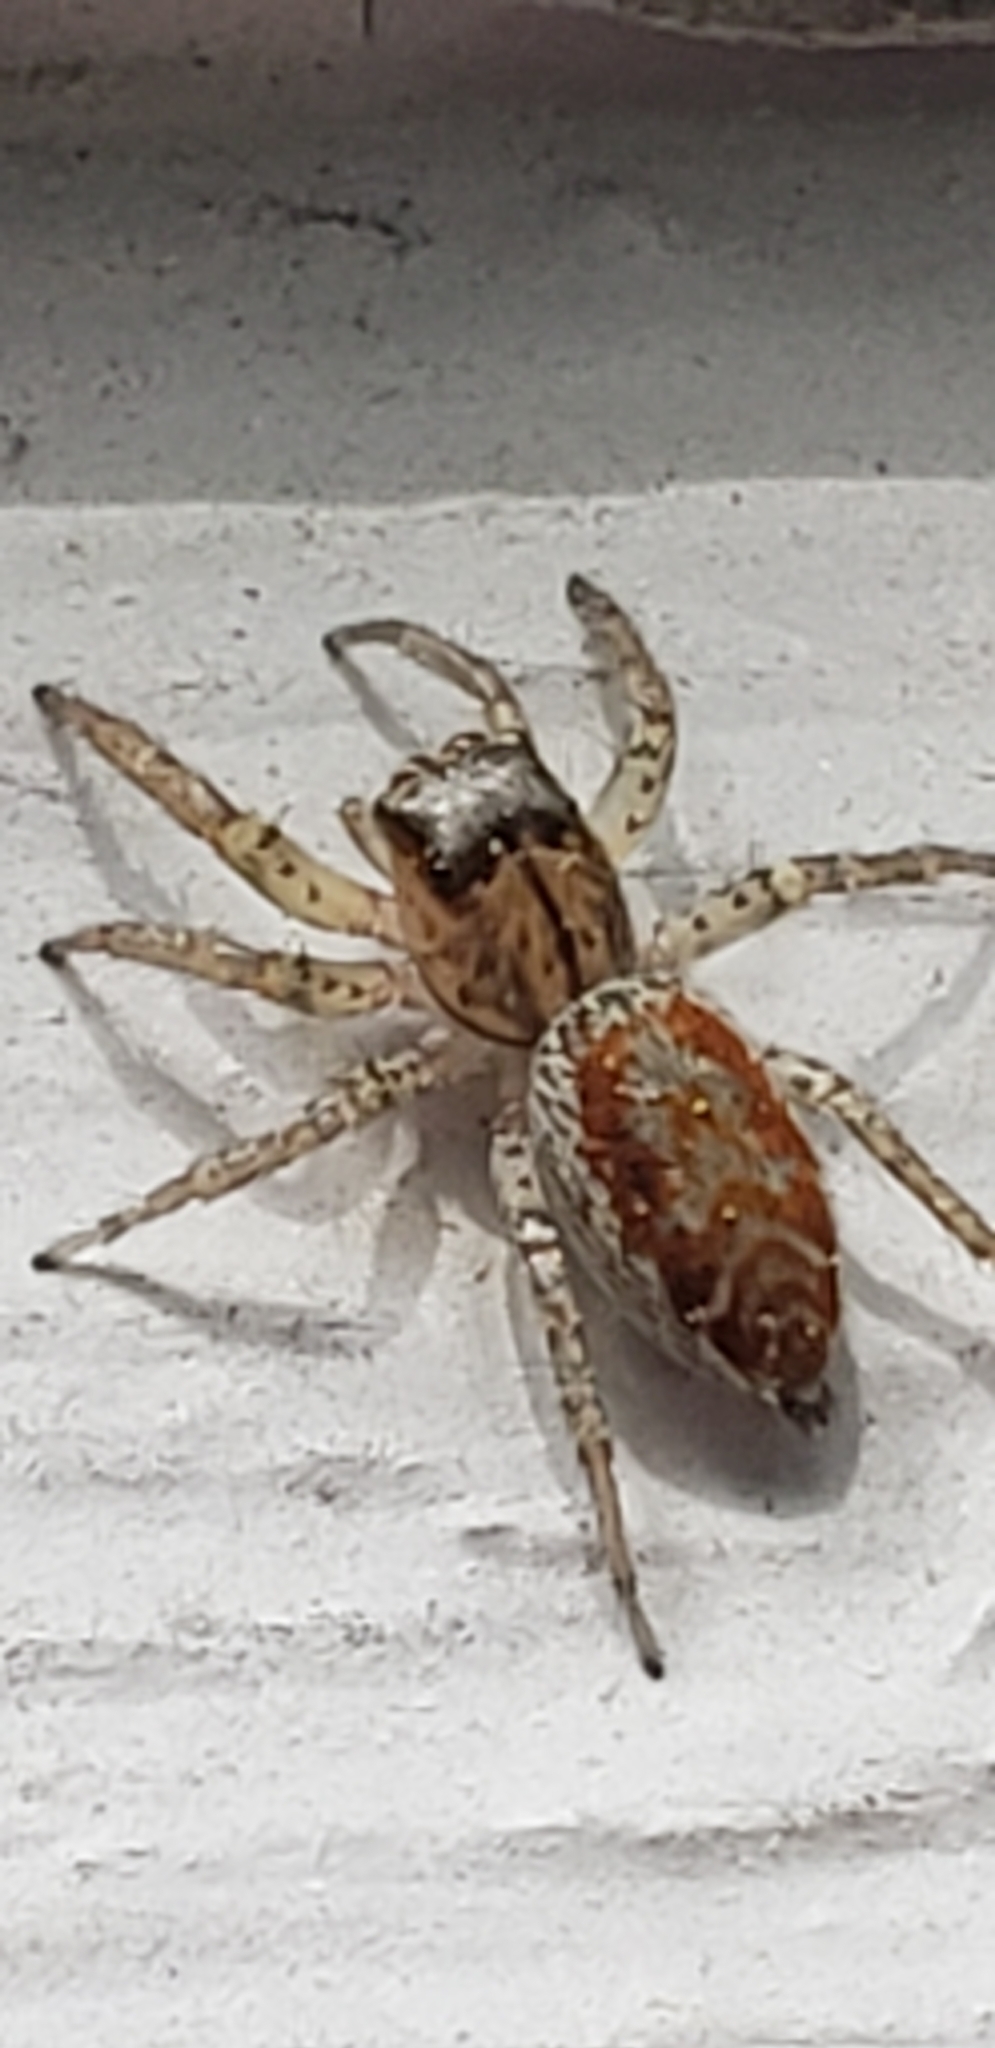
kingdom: Animalia
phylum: Arthropoda
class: Arachnida
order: Araneae
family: Salticidae
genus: Maevia
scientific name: Maevia inclemens
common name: Dimorphic jumper
